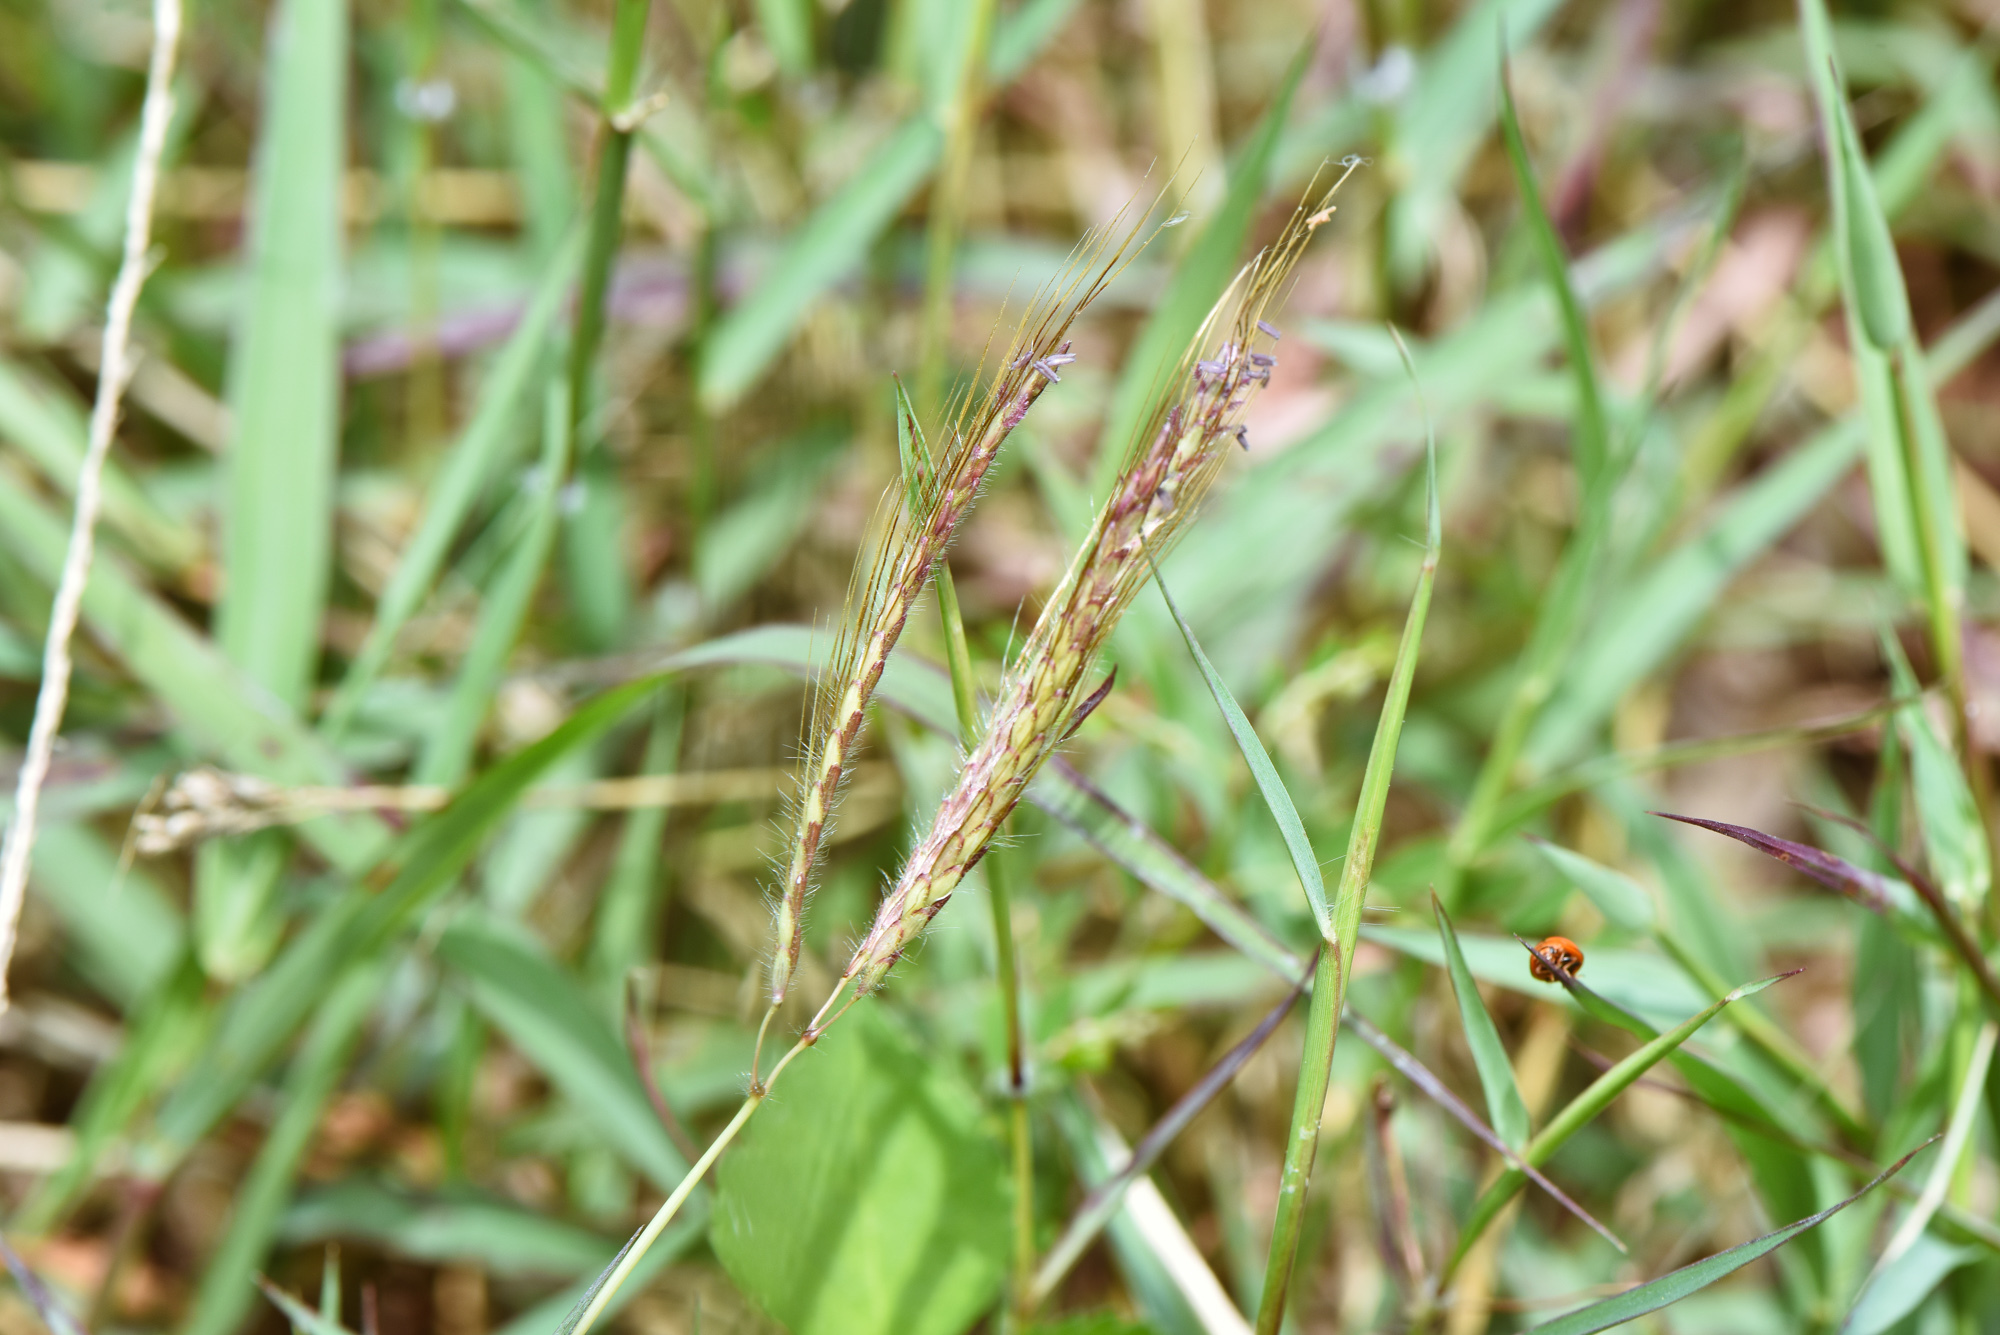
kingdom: Plantae
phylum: Tracheophyta
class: Liliopsida
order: Poales
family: Poaceae
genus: Dichanthium
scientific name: Dichanthium annulatum
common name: Kleberg's bluestem
